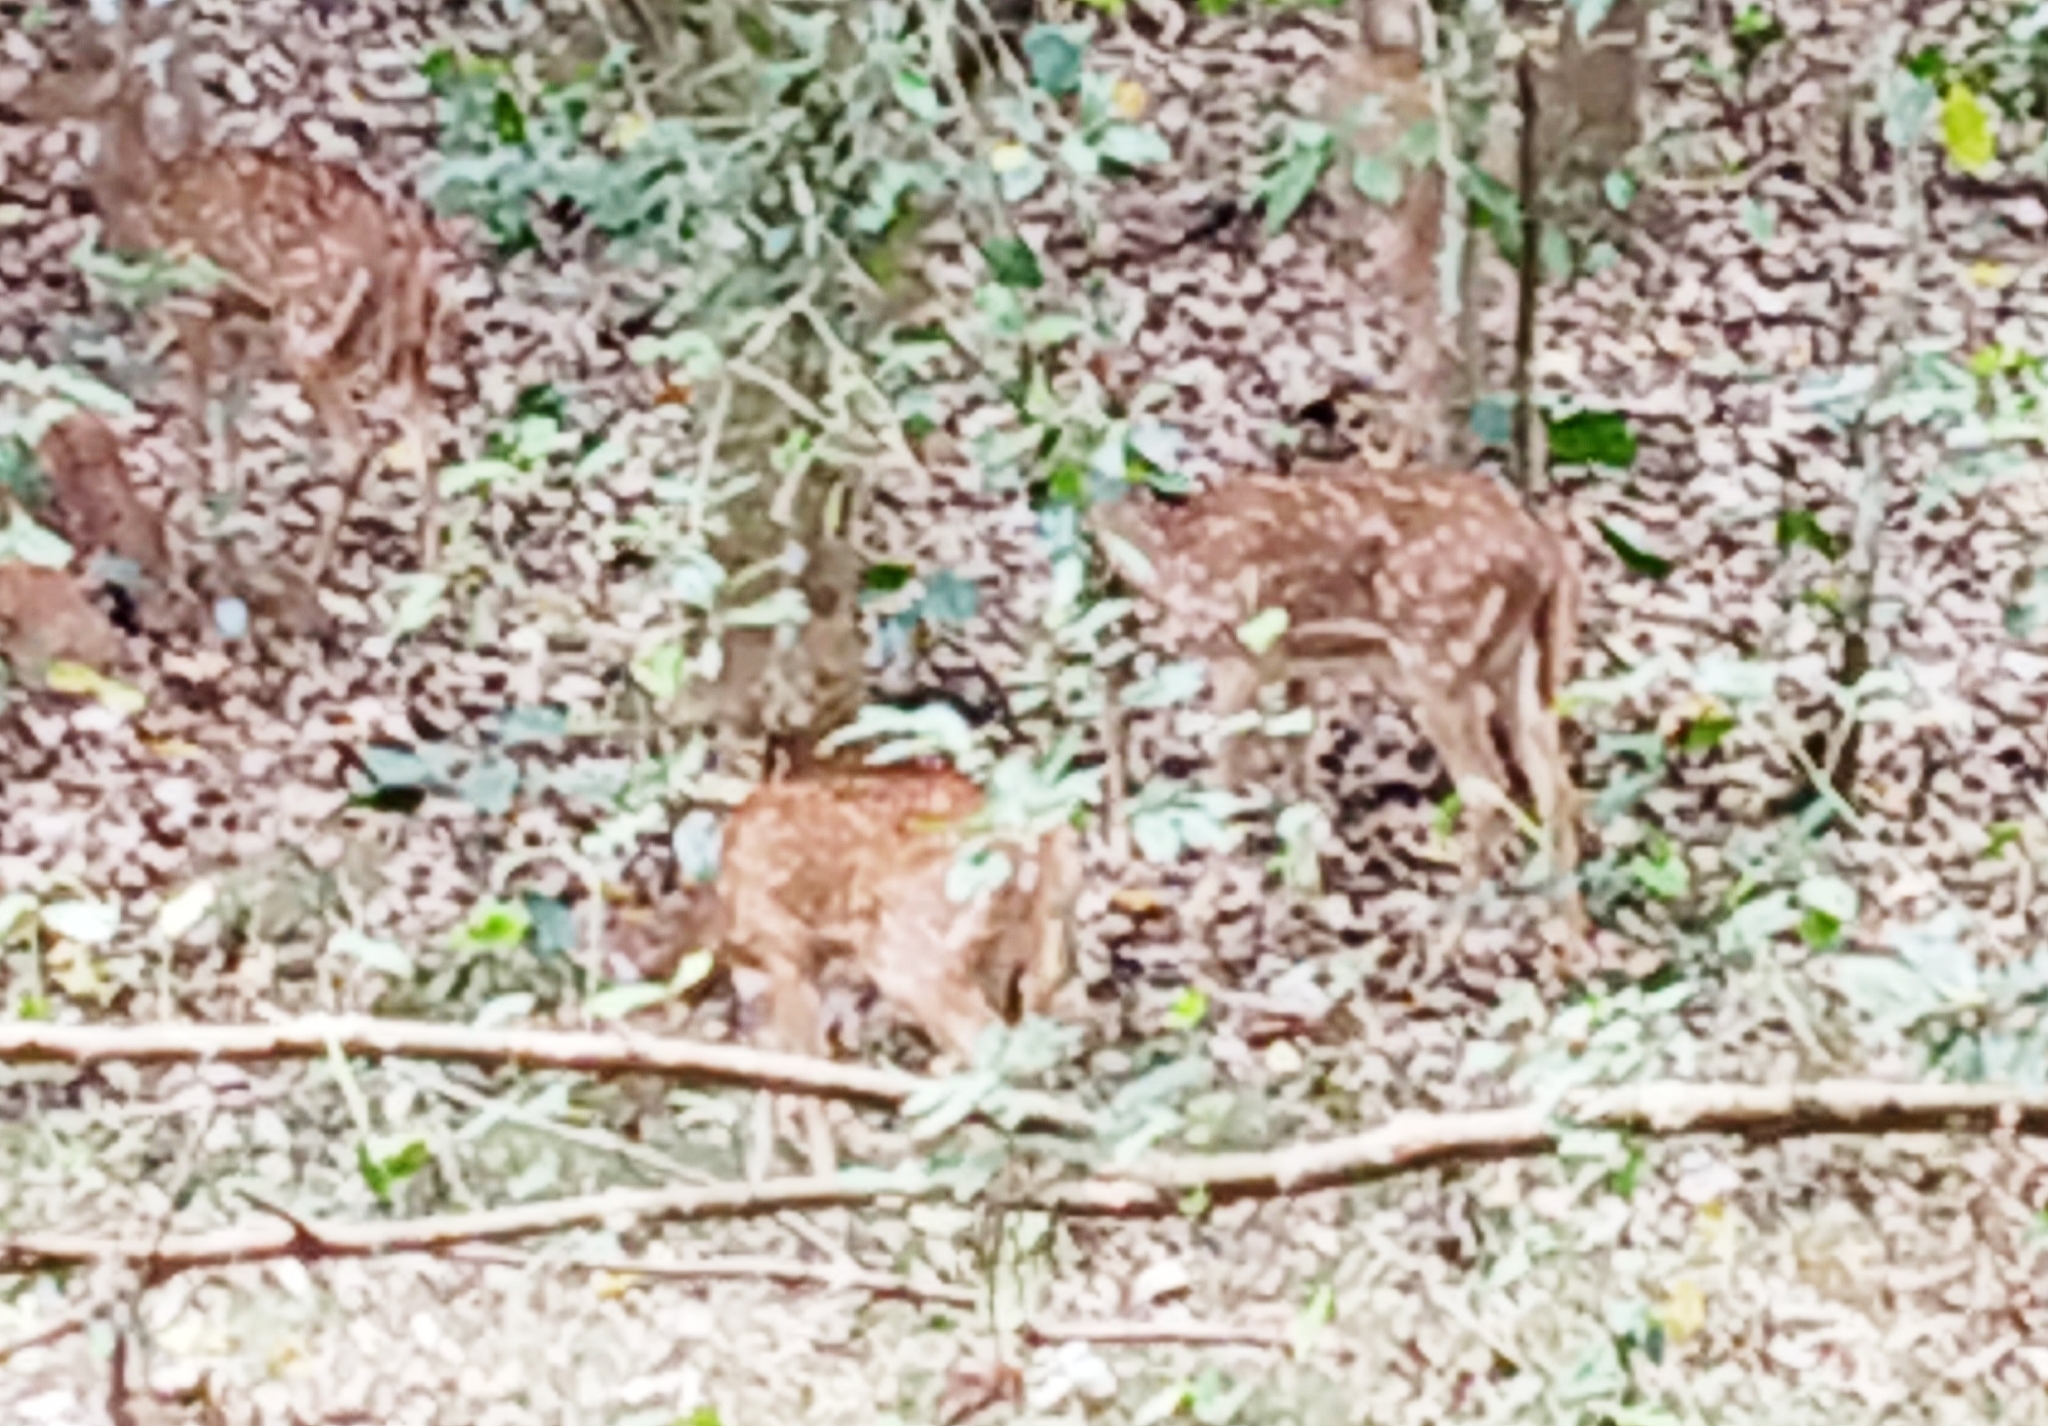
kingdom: Animalia
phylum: Chordata
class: Mammalia
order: Artiodactyla
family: Cervidae
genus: Axis
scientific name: Axis axis
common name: Chital
